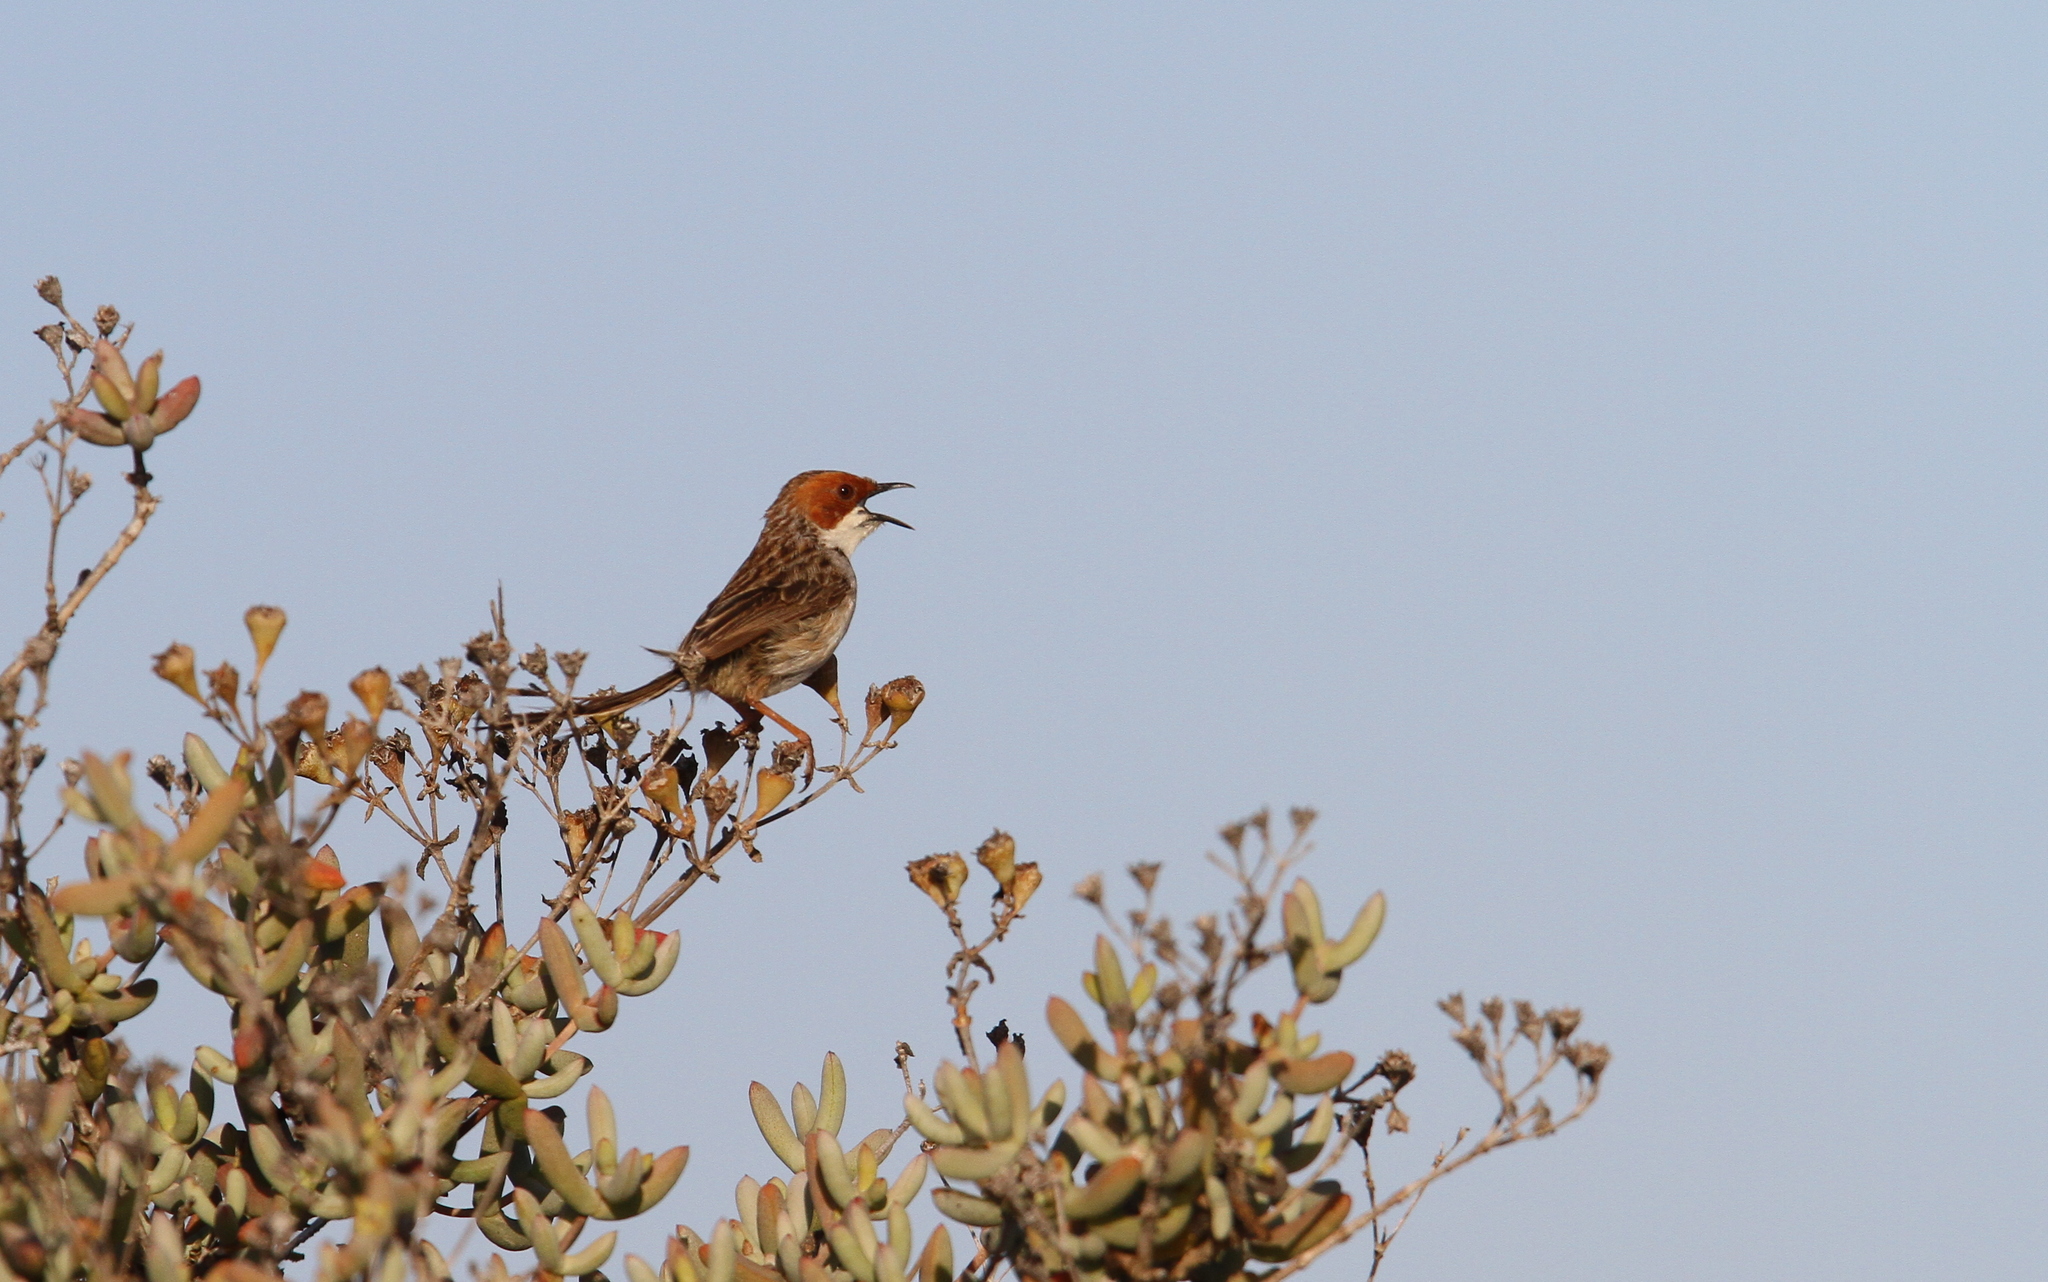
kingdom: Animalia
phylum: Chordata
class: Aves
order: Passeriformes
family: Cisticolidae
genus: Malcorus
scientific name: Malcorus pectoralis
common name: Rufous-eared warbler
